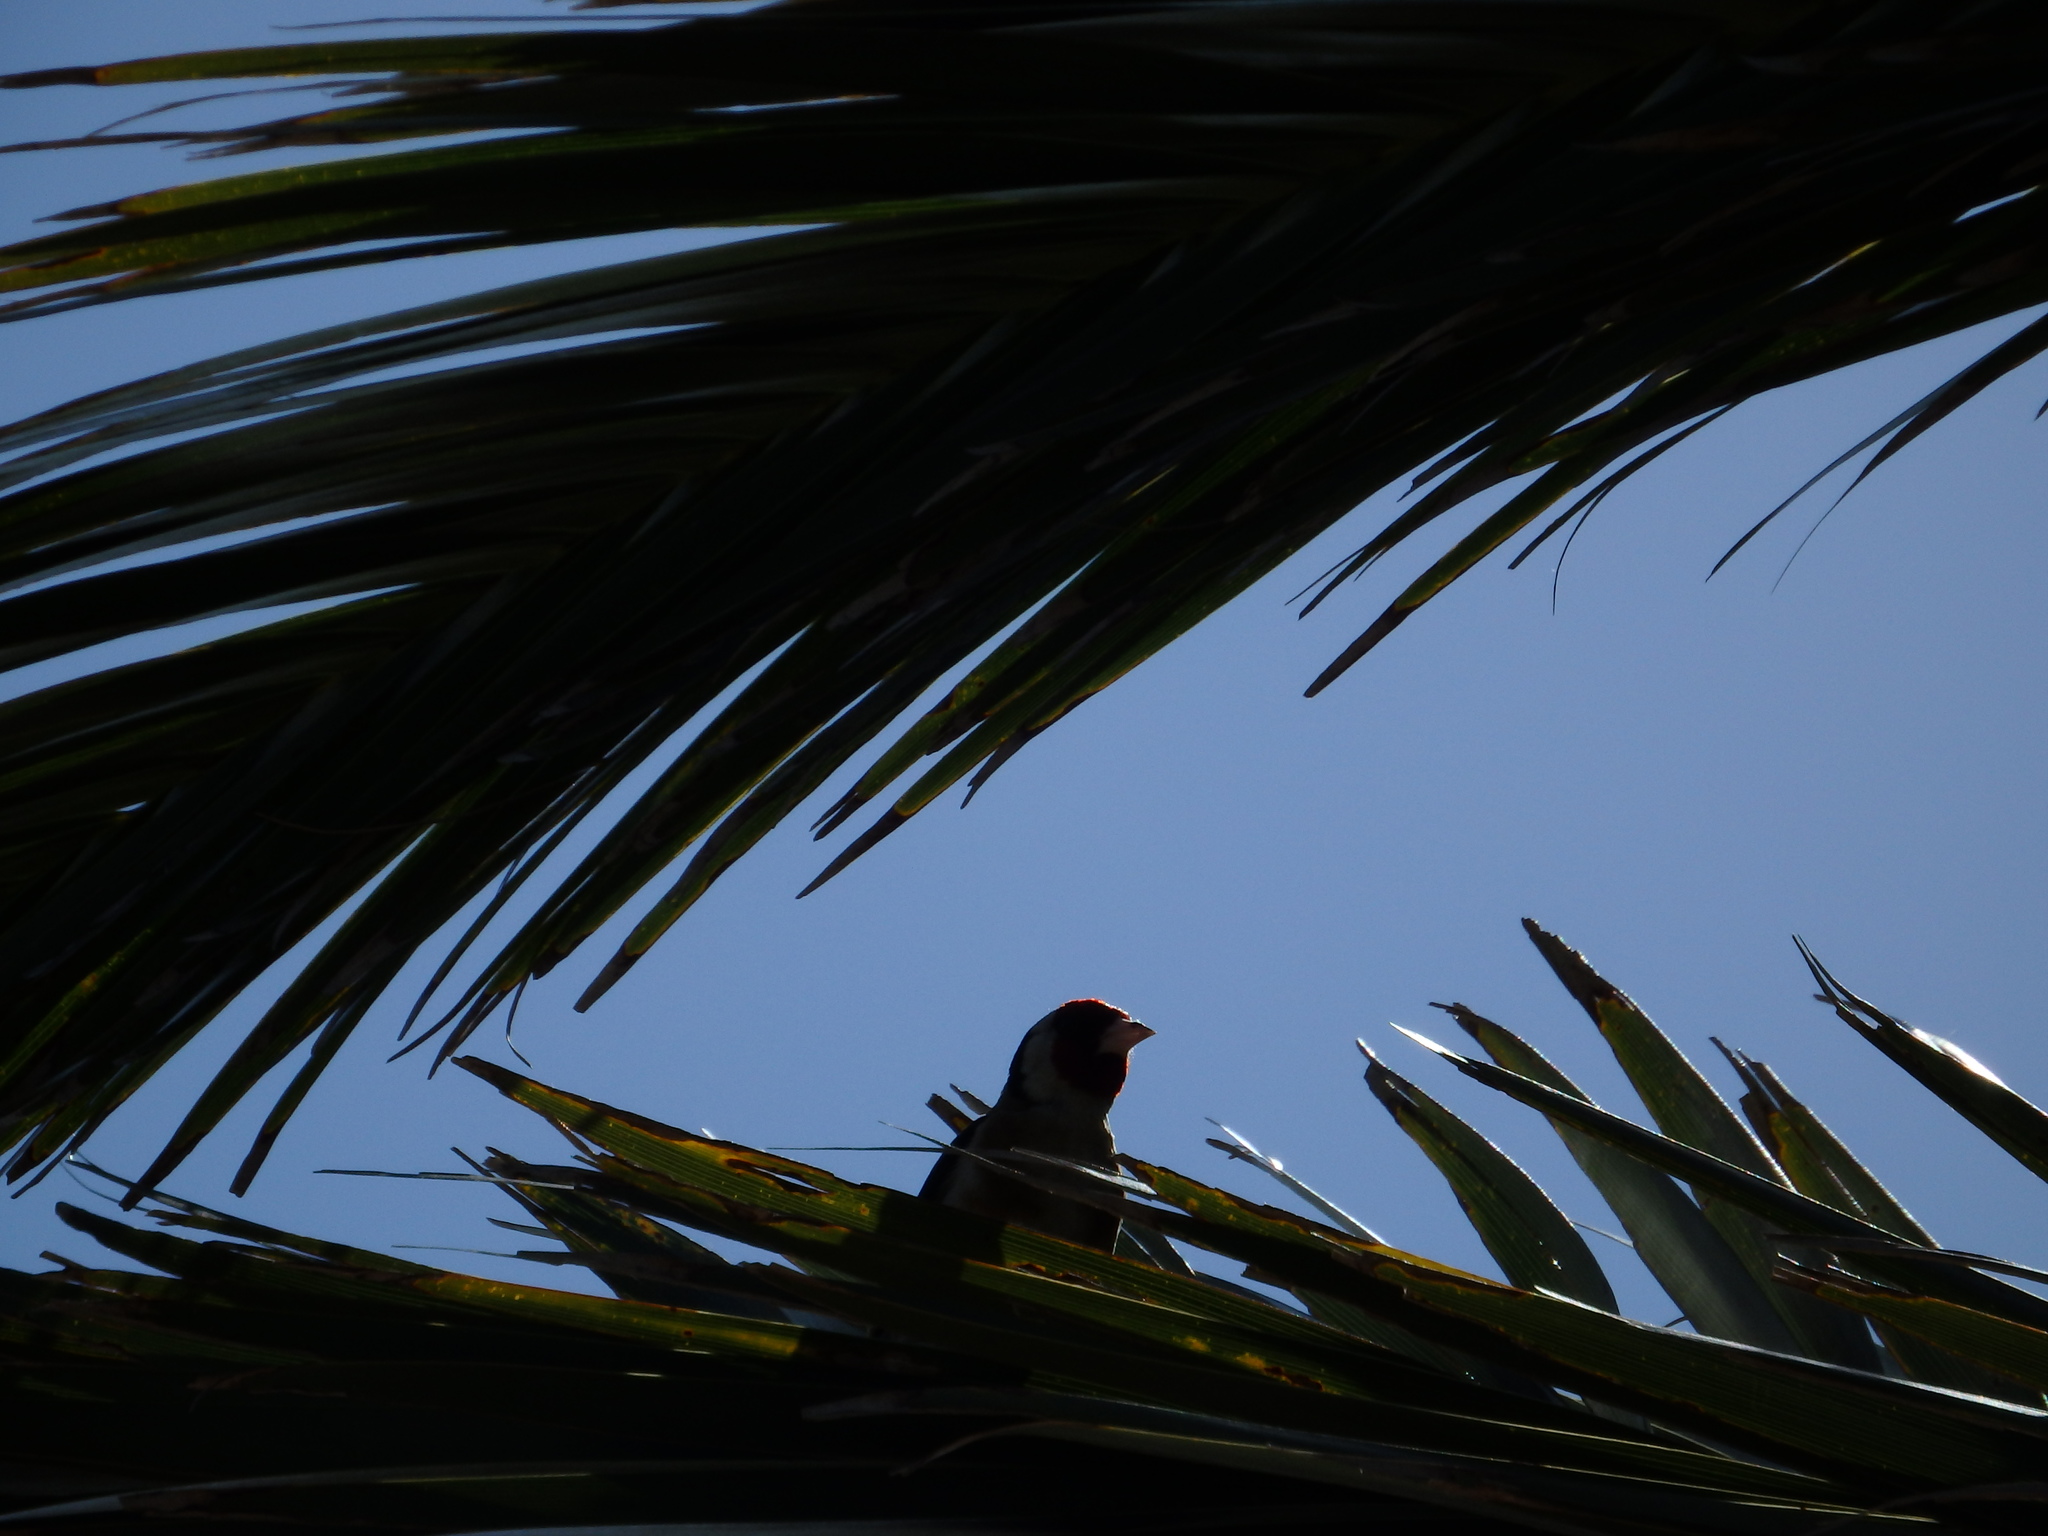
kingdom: Animalia
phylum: Chordata
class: Aves
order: Passeriformes
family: Fringillidae
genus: Carduelis
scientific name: Carduelis carduelis
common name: European goldfinch
